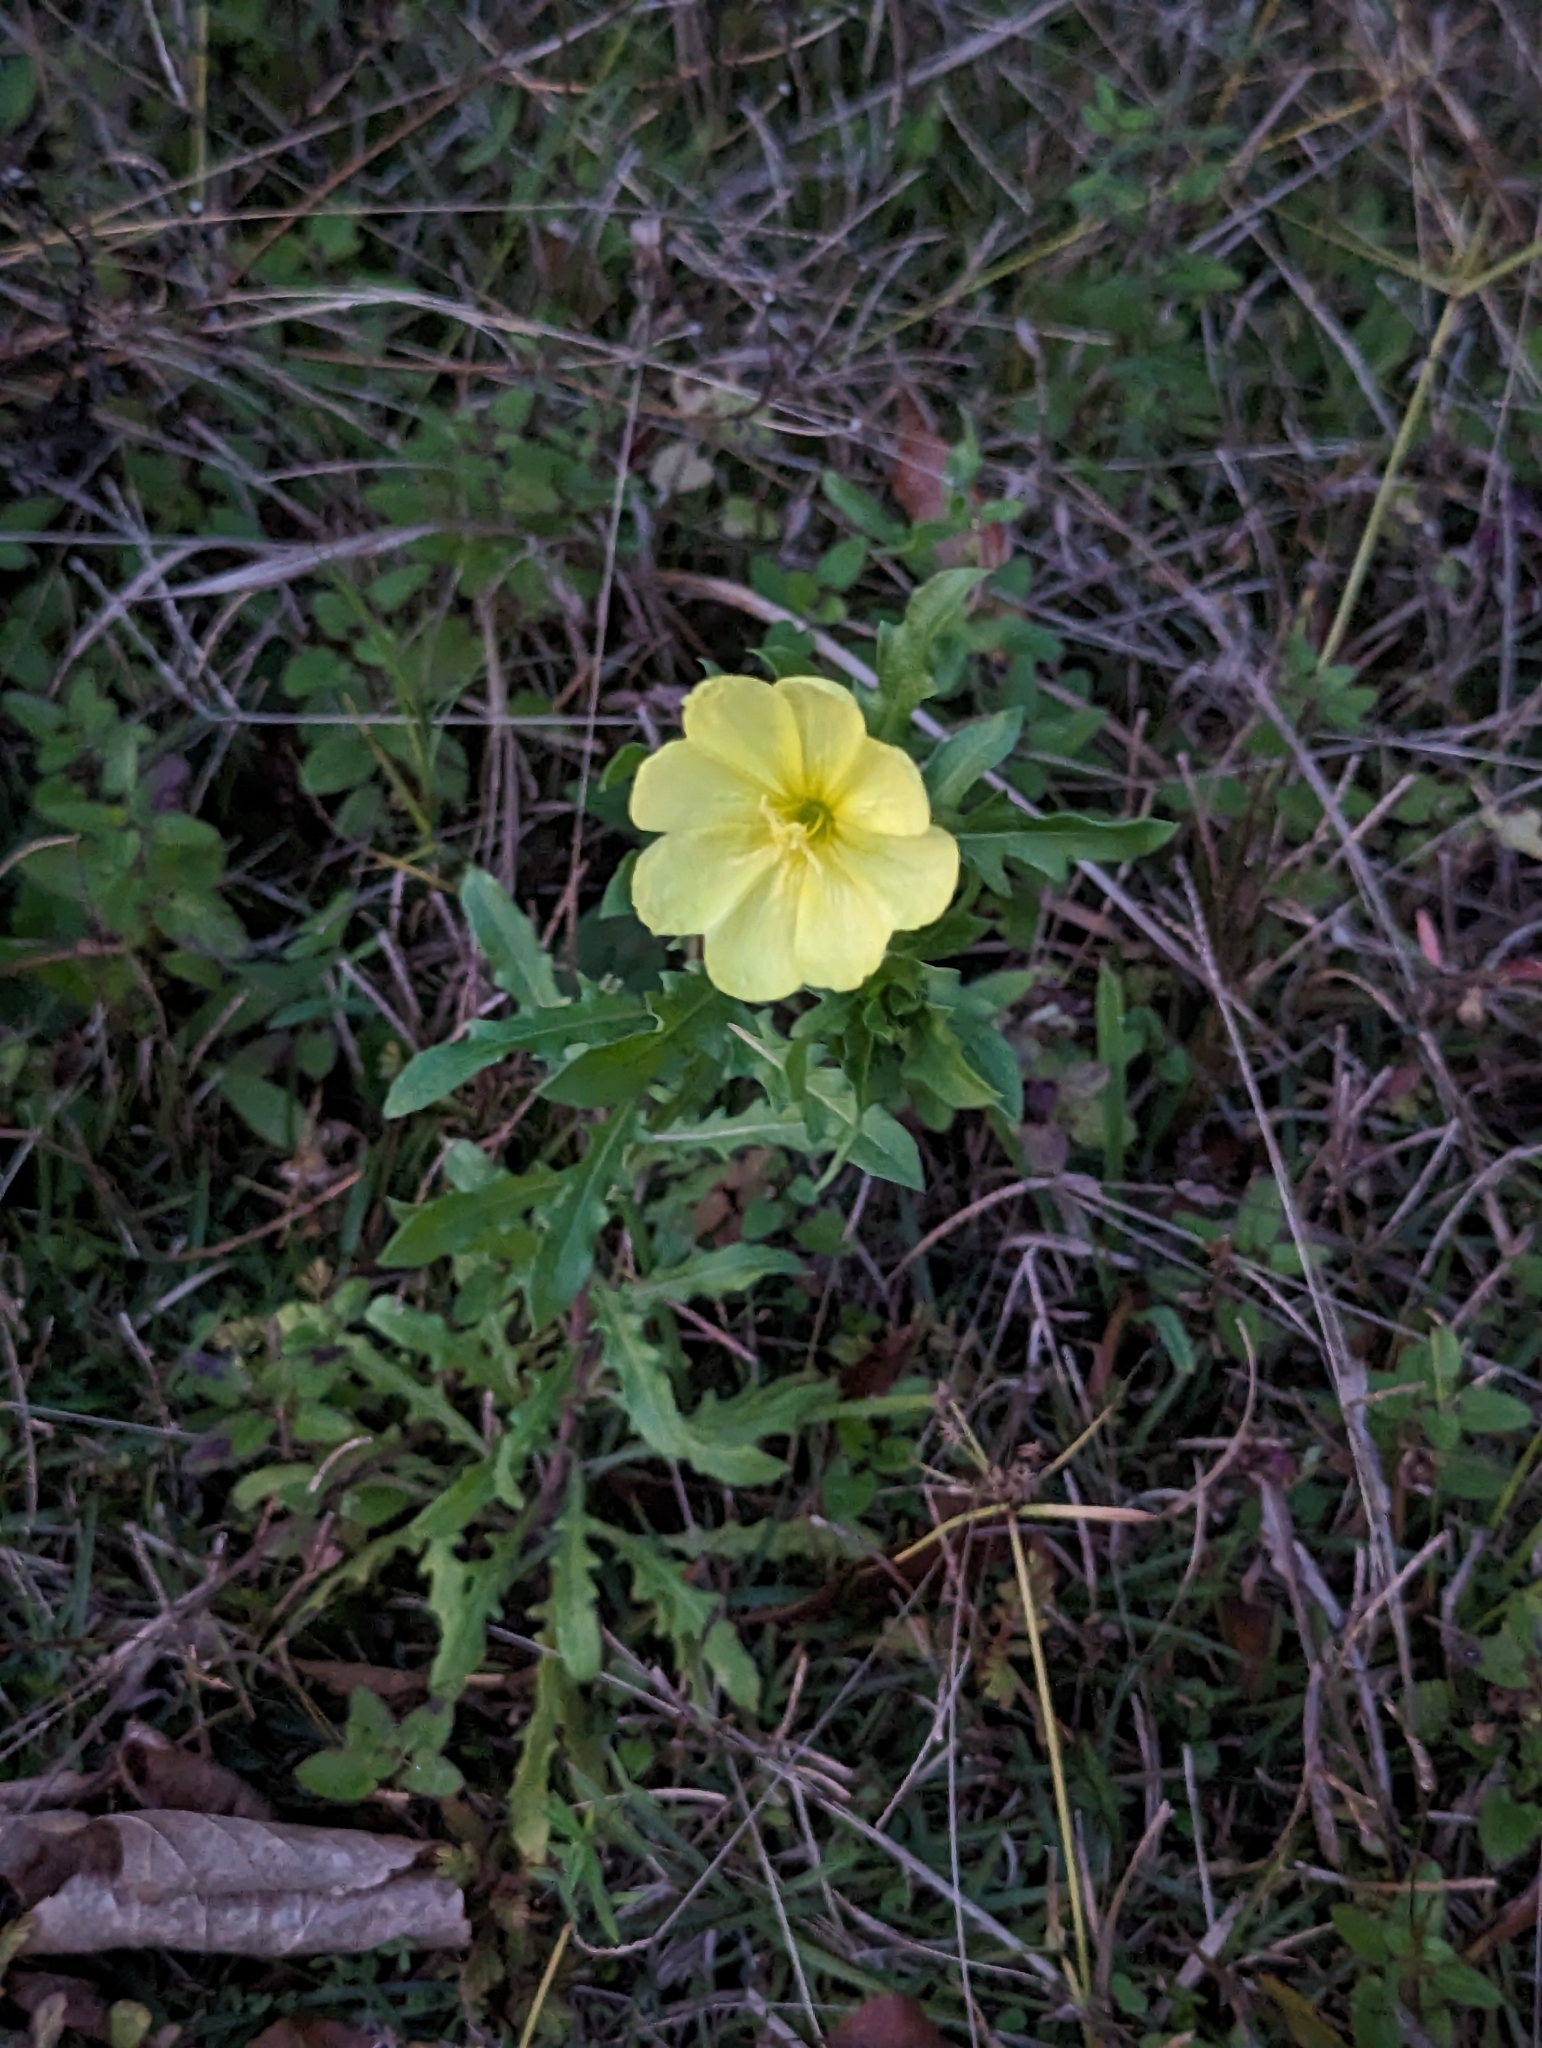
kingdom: Plantae
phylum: Tracheophyta
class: Magnoliopsida
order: Myrtales
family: Onagraceae
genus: Oenothera
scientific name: Oenothera laciniata
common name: Cut-leaved evening-primrose
